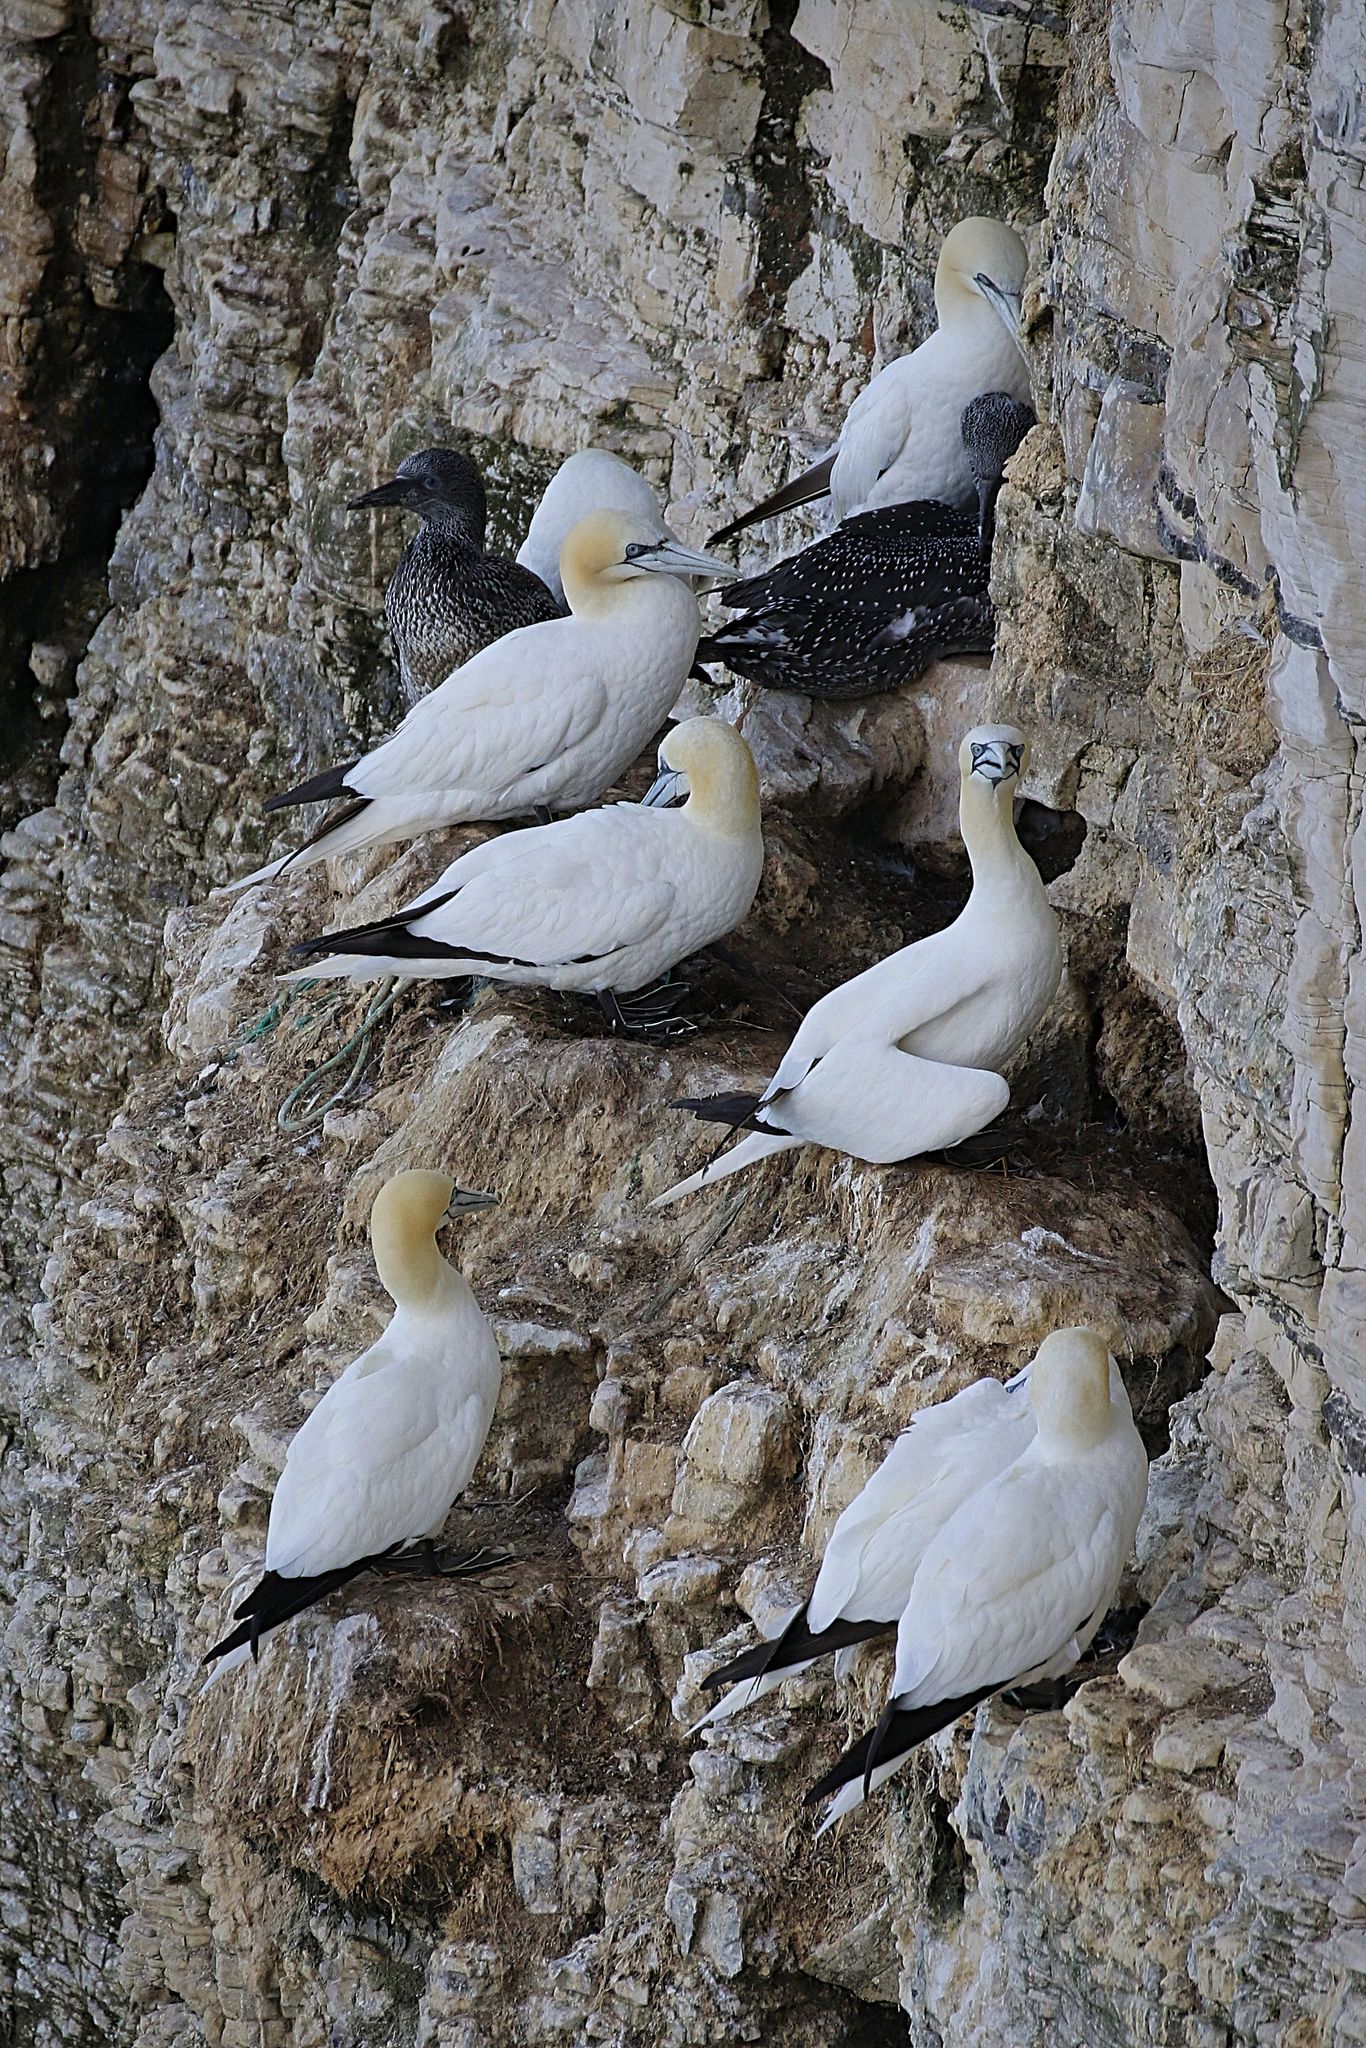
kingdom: Animalia
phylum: Chordata
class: Aves
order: Suliformes
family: Sulidae
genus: Morus
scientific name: Morus bassanus
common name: Northern gannet
